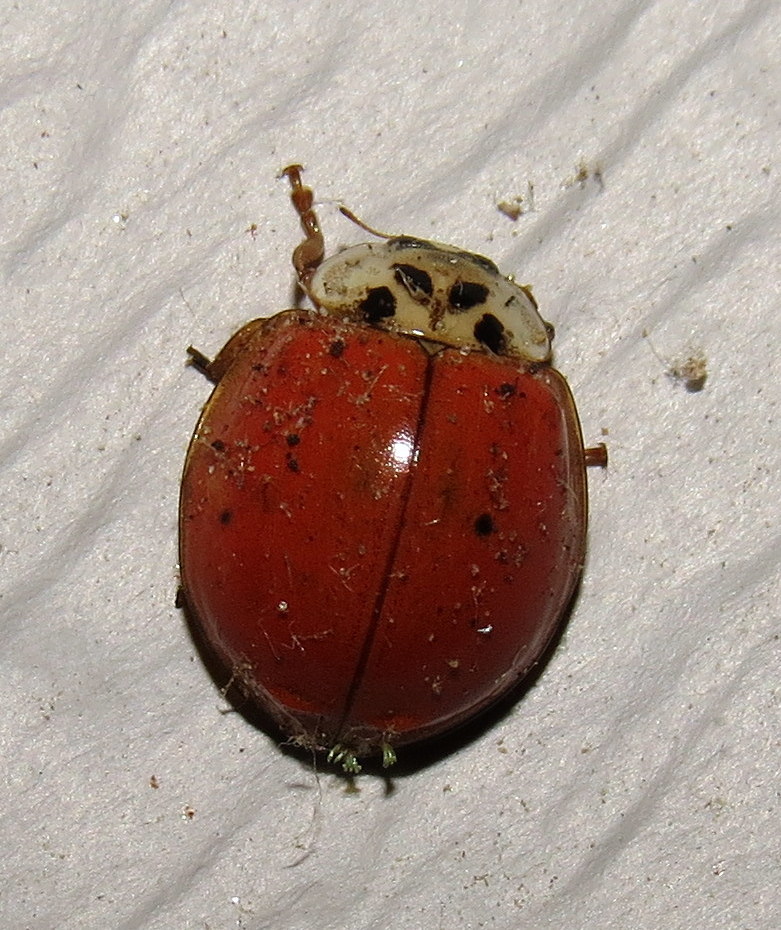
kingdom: Animalia
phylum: Arthropoda
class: Insecta
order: Coleoptera
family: Coccinellidae
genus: Harmonia
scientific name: Harmonia axyridis
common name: Harlequin ladybird
